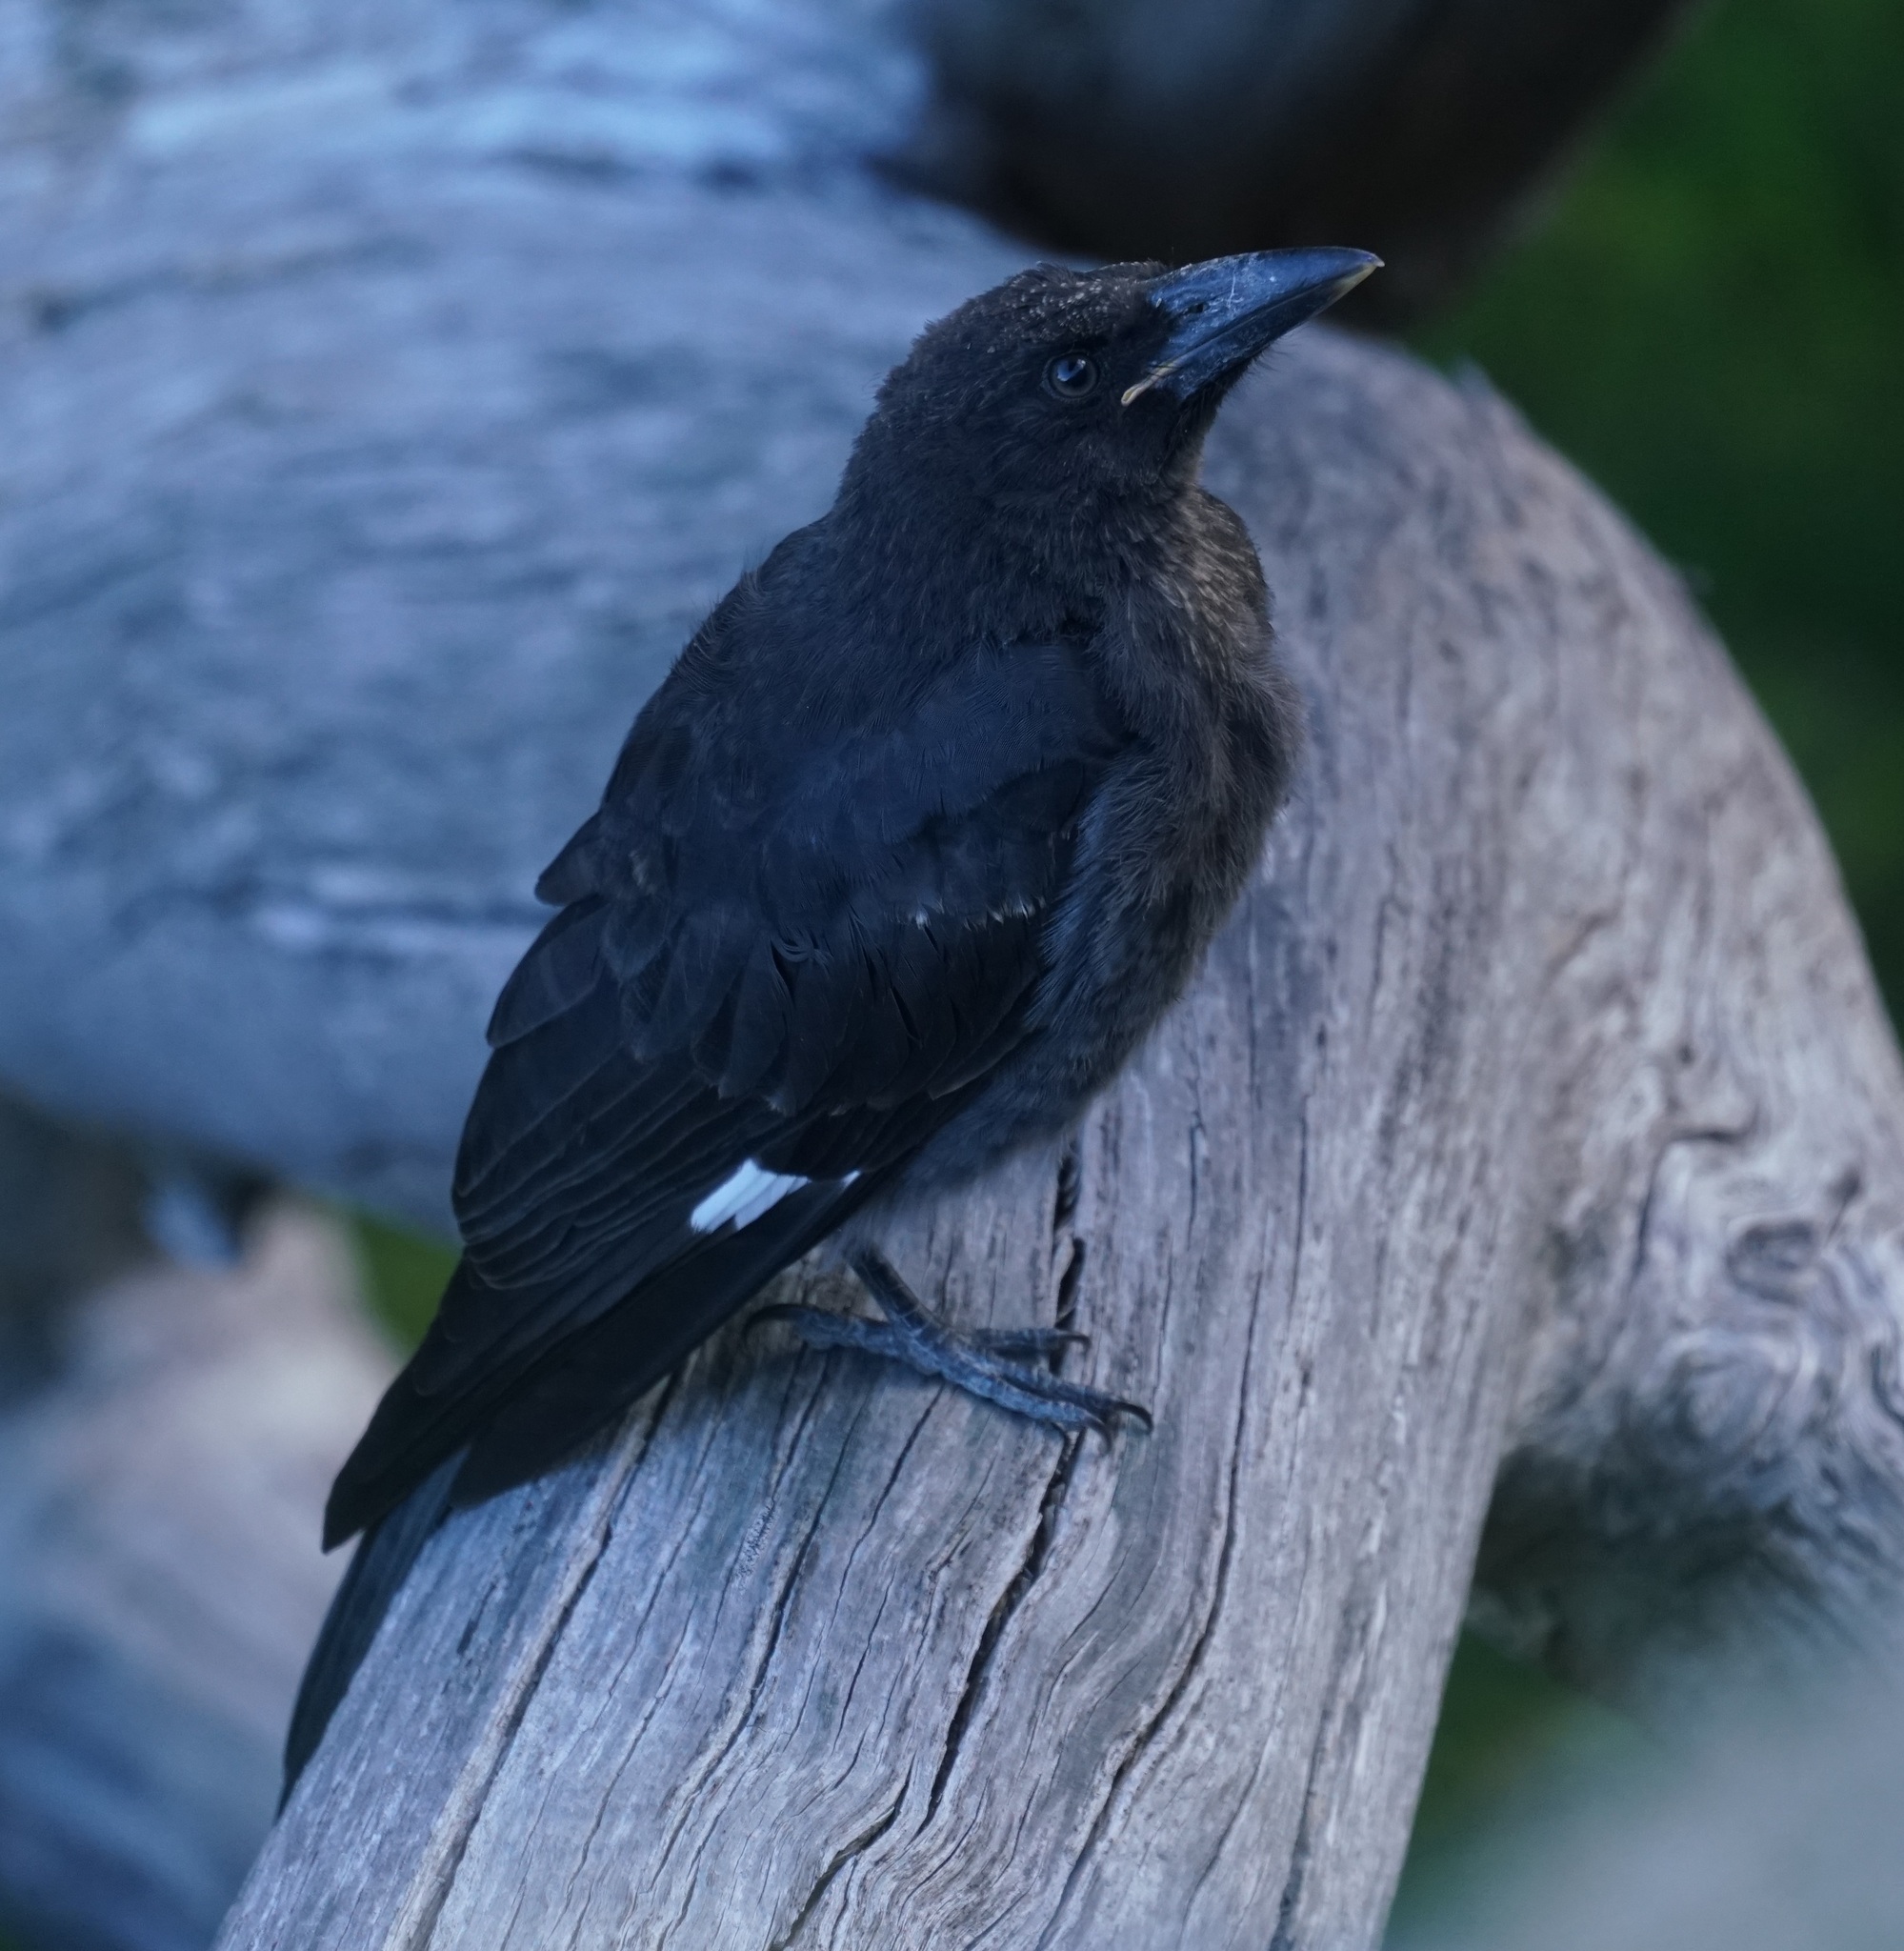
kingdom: Animalia
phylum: Chordata
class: Aves
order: Passeriformes
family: Cracticidae
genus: Strepera
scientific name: Strepera graculina
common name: Pied currawong
